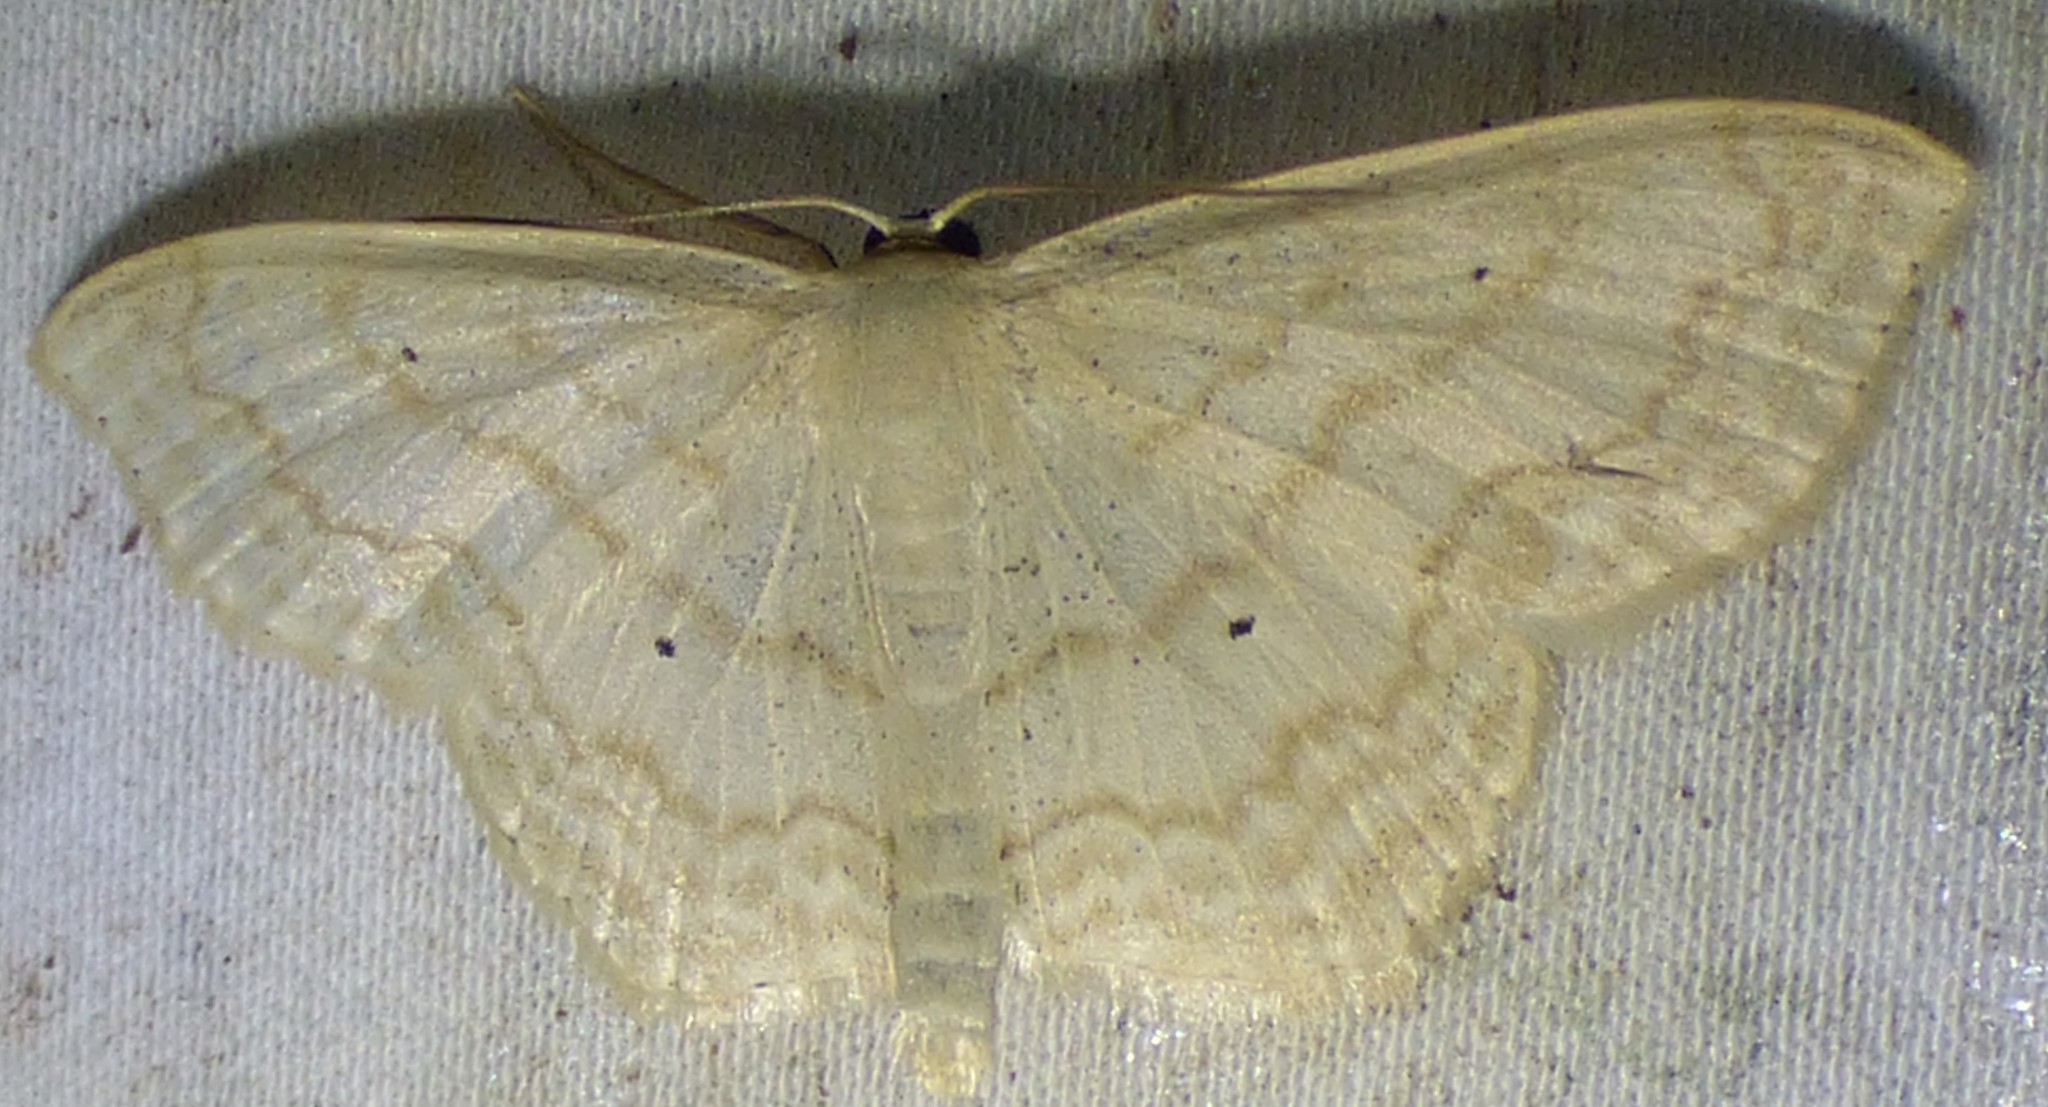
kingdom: Animalia
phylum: Arthropoda
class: Insecta
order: Lepidoptera
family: Geometridae
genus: Scopula
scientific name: Scopula limboundata
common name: Large lace border
